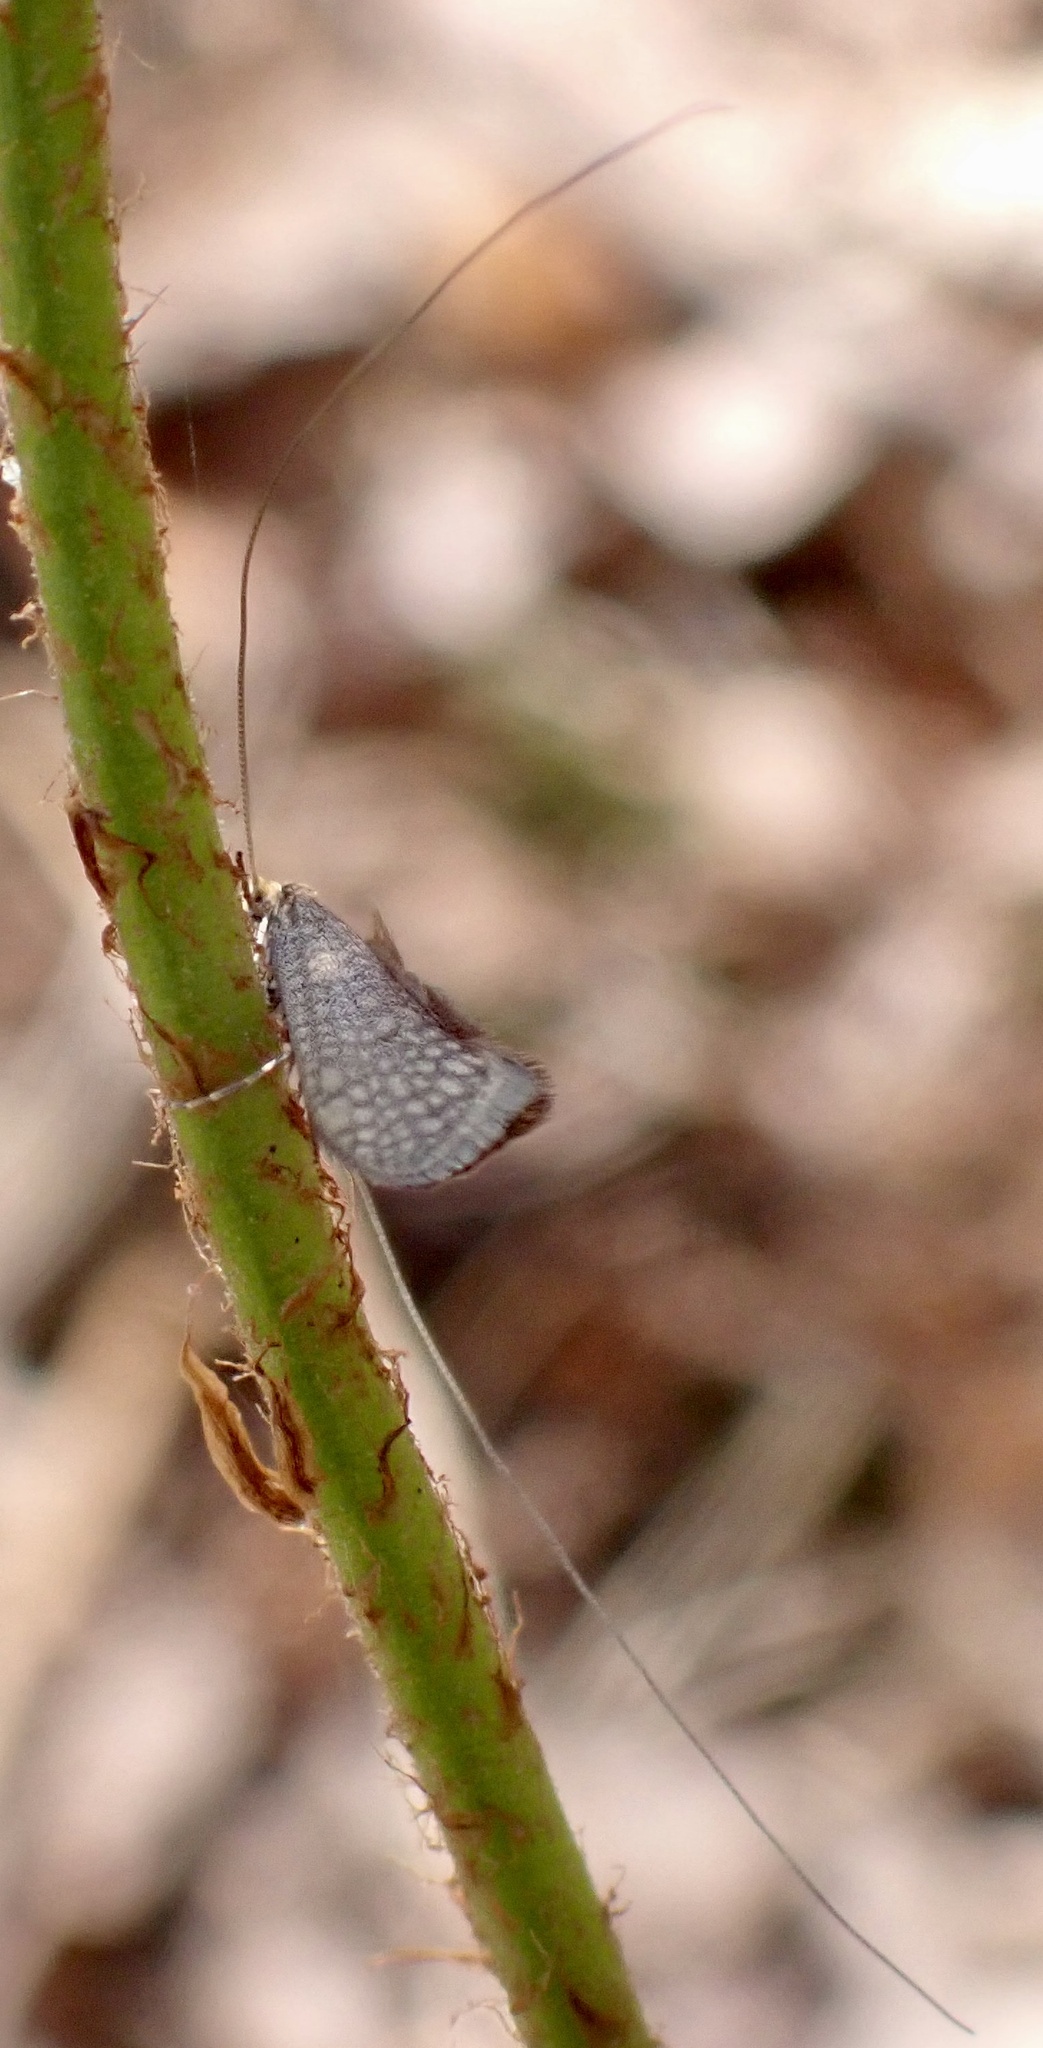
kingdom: Animalia
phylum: Arthropoda
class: Insecta
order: Lepidoptera
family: Adelidae
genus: Nematopogon
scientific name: Nematopogon adansoniella
